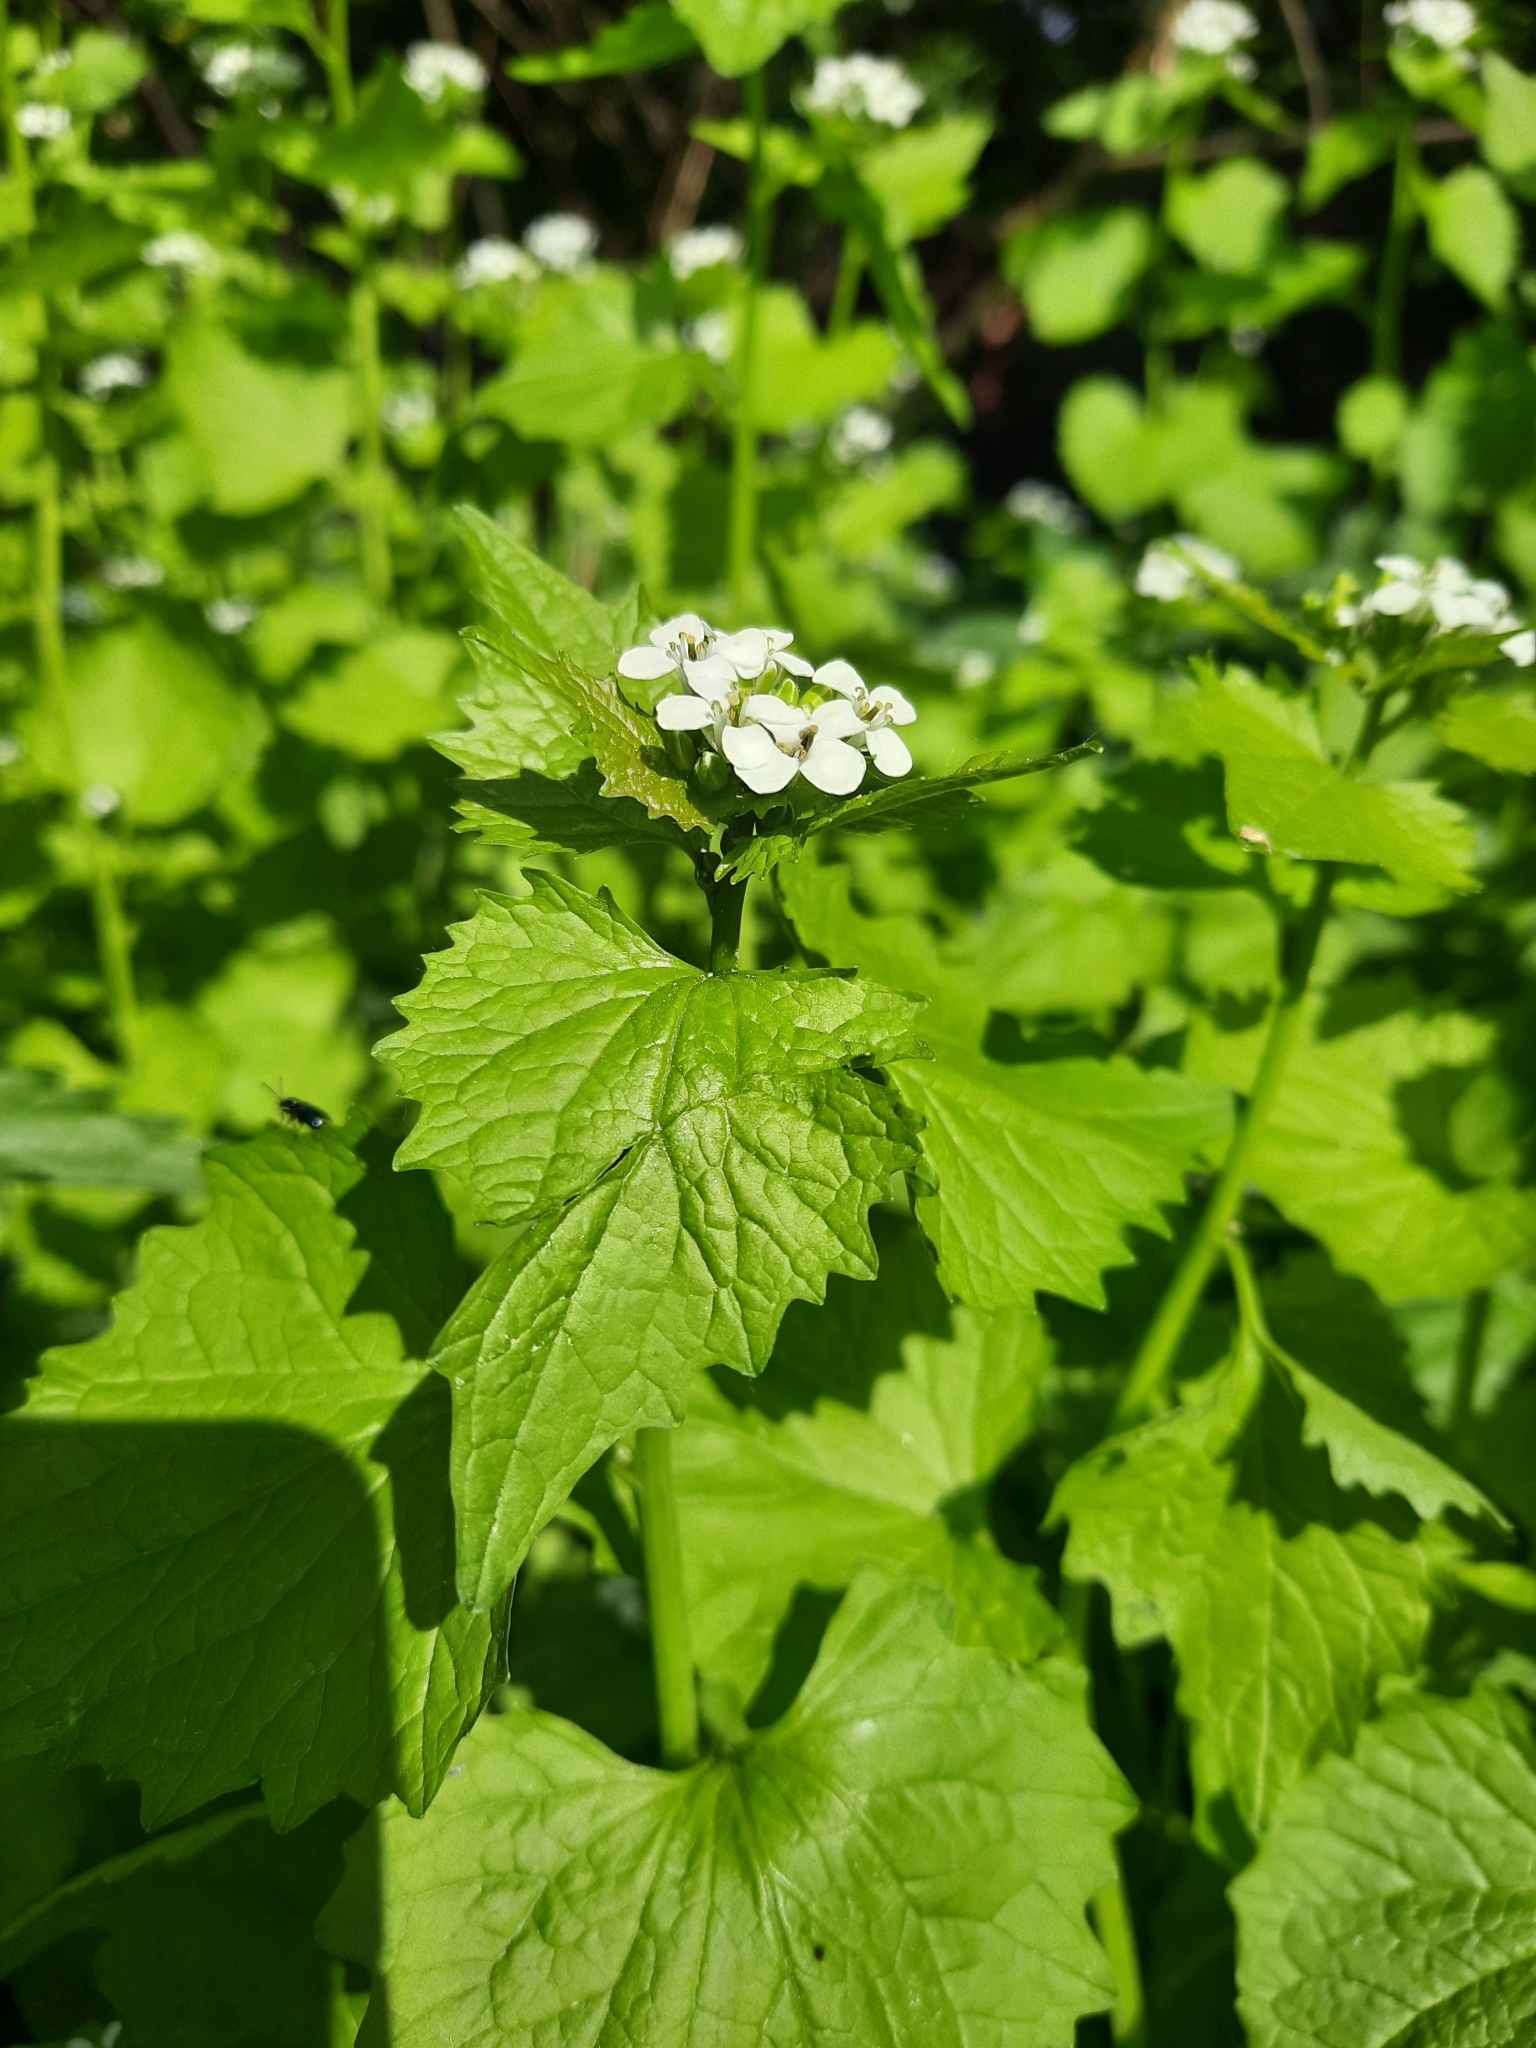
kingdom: Plantae
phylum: Tracheophyta
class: Magnoliopsida
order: Brassicales
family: Brassicaceae
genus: Alliaria
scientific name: Alliaria petiolata
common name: Garlic mustard
